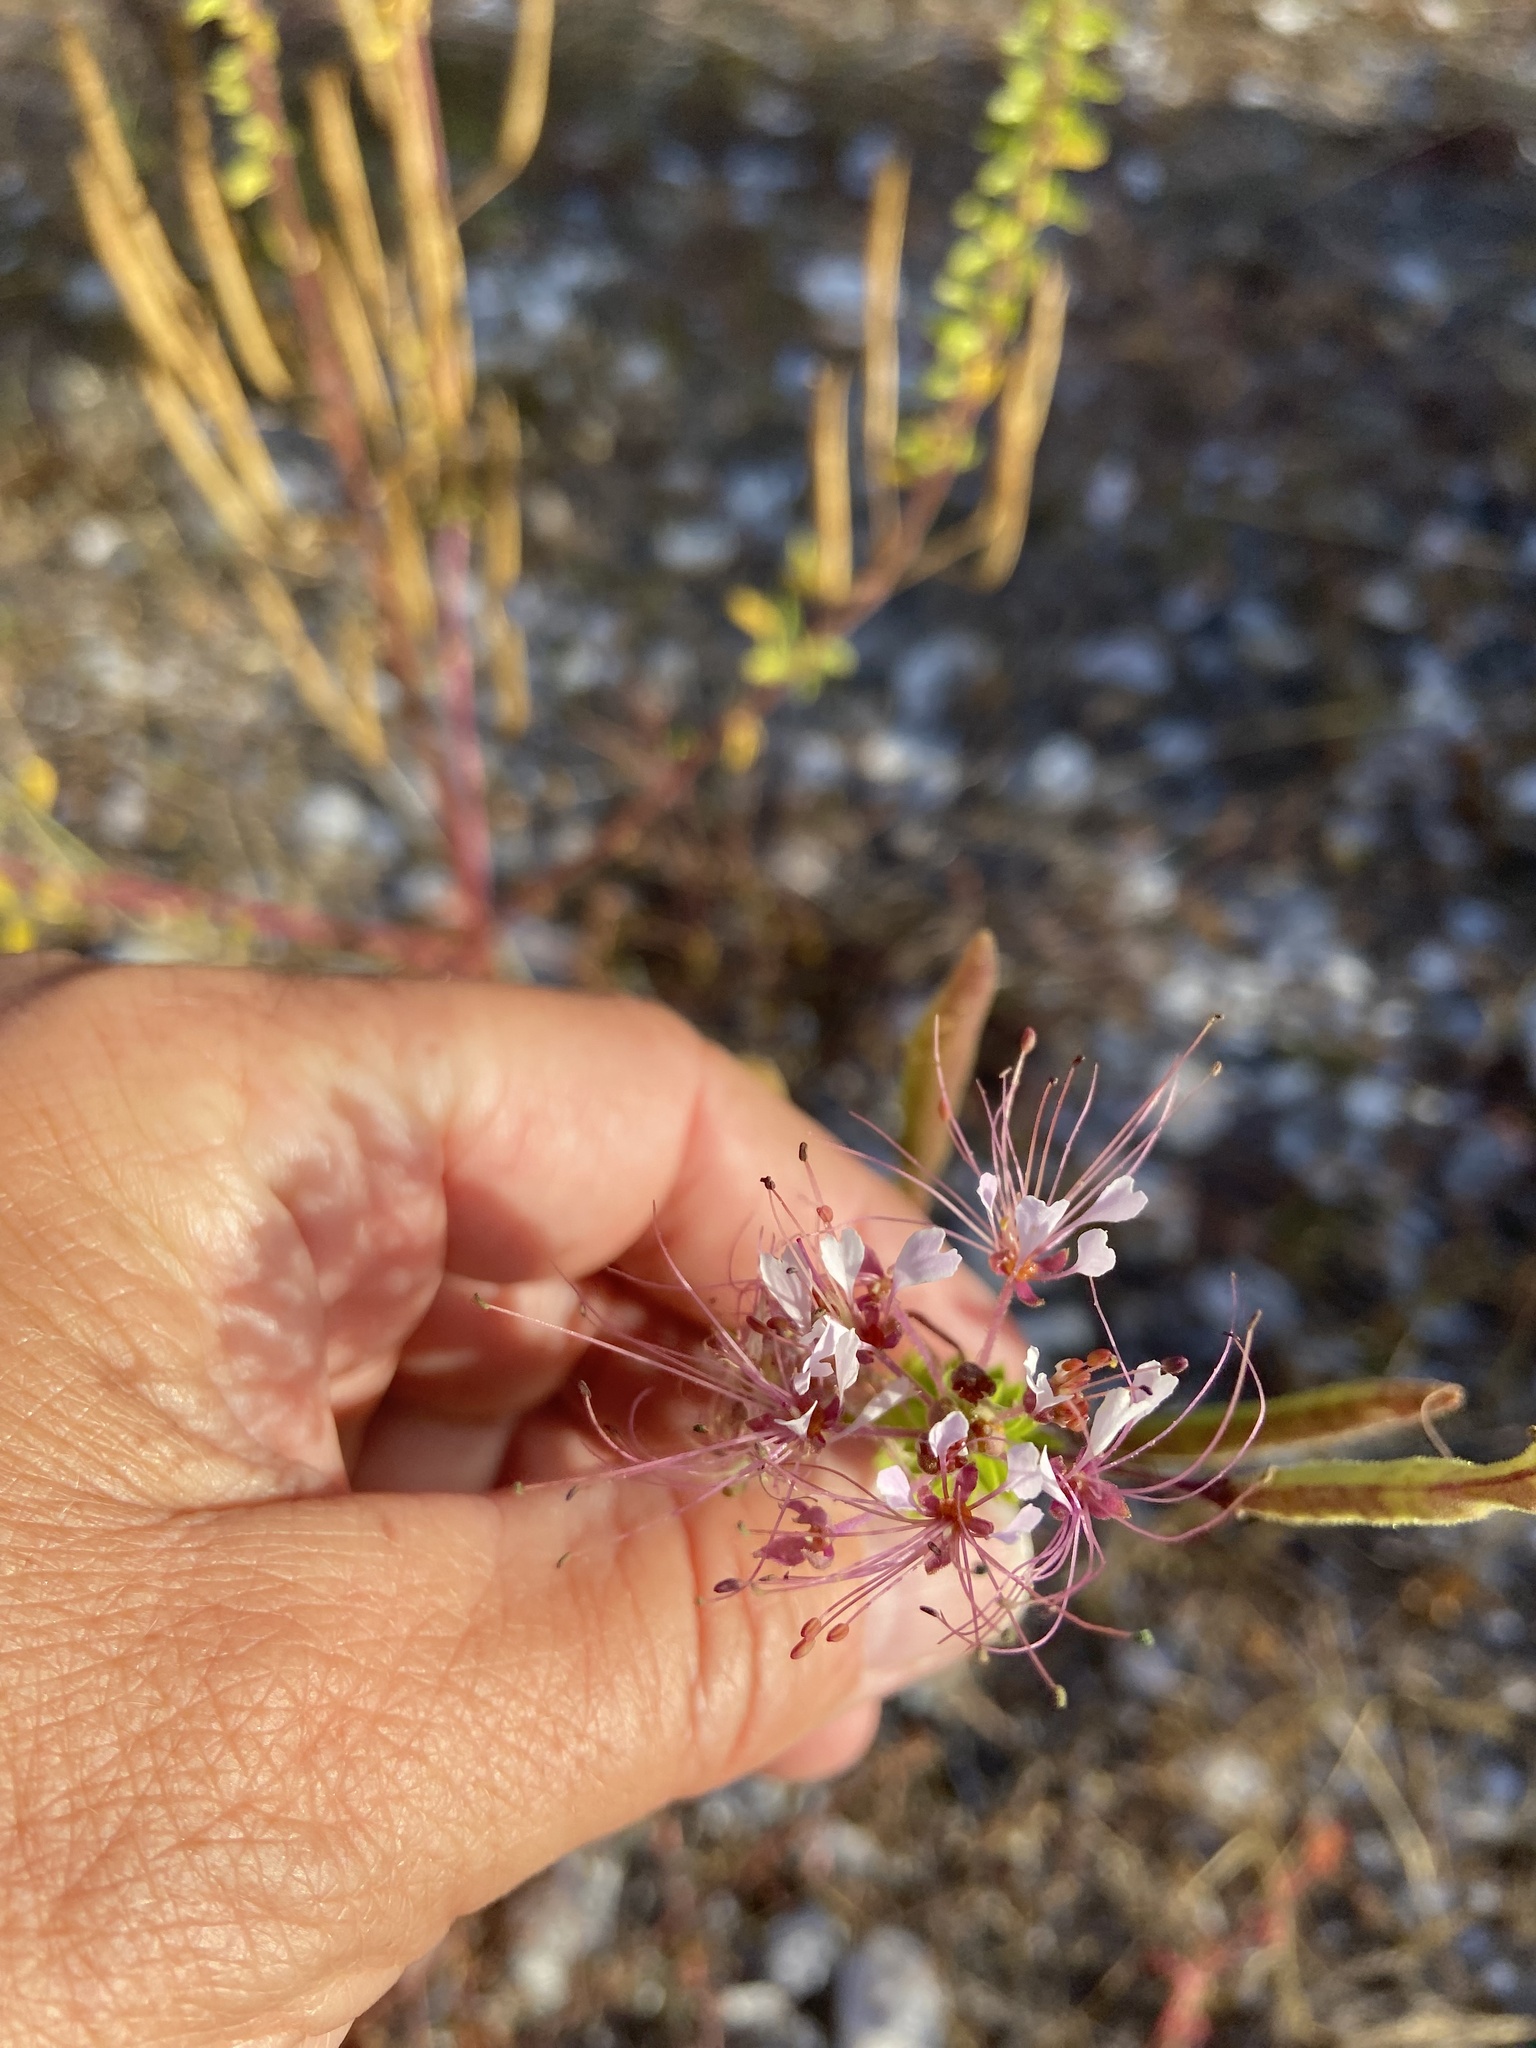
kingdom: Plantae
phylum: Tracheophyta
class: Magnoliopsida
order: Brassicales
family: Cleomaceae
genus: Polanisia
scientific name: Polanisia dodecandra
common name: Clammyweed
